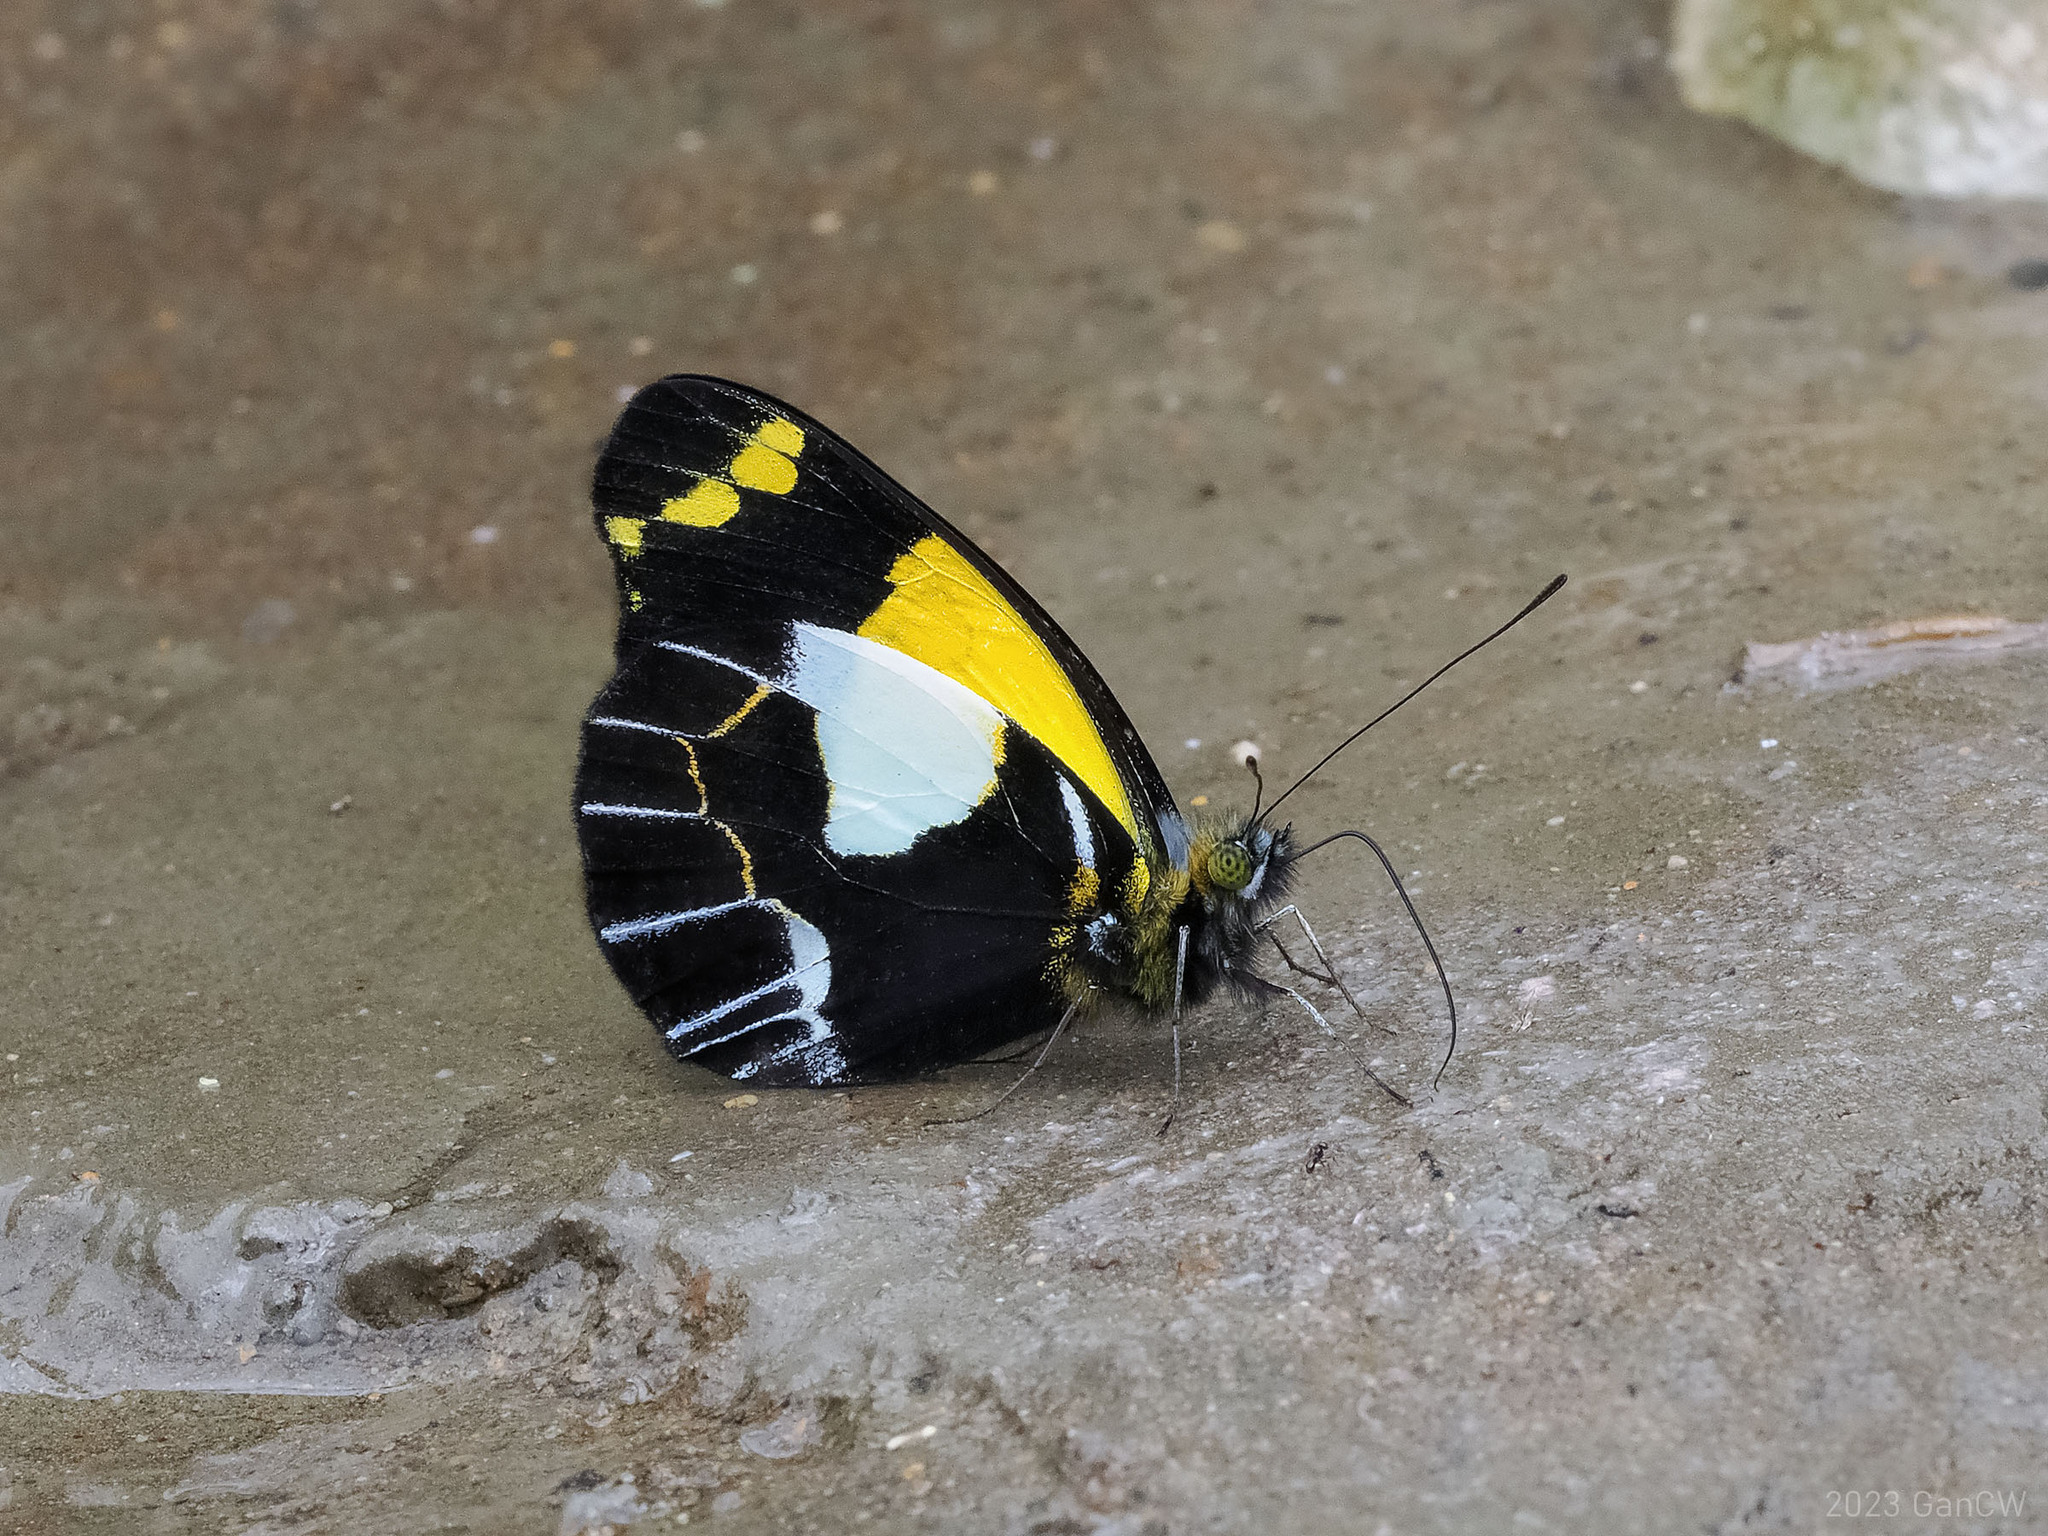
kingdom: Animalia
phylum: Arthropoda
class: Insecta
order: Lepidoptera
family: Pieridae
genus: Delias
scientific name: Delias neagra
